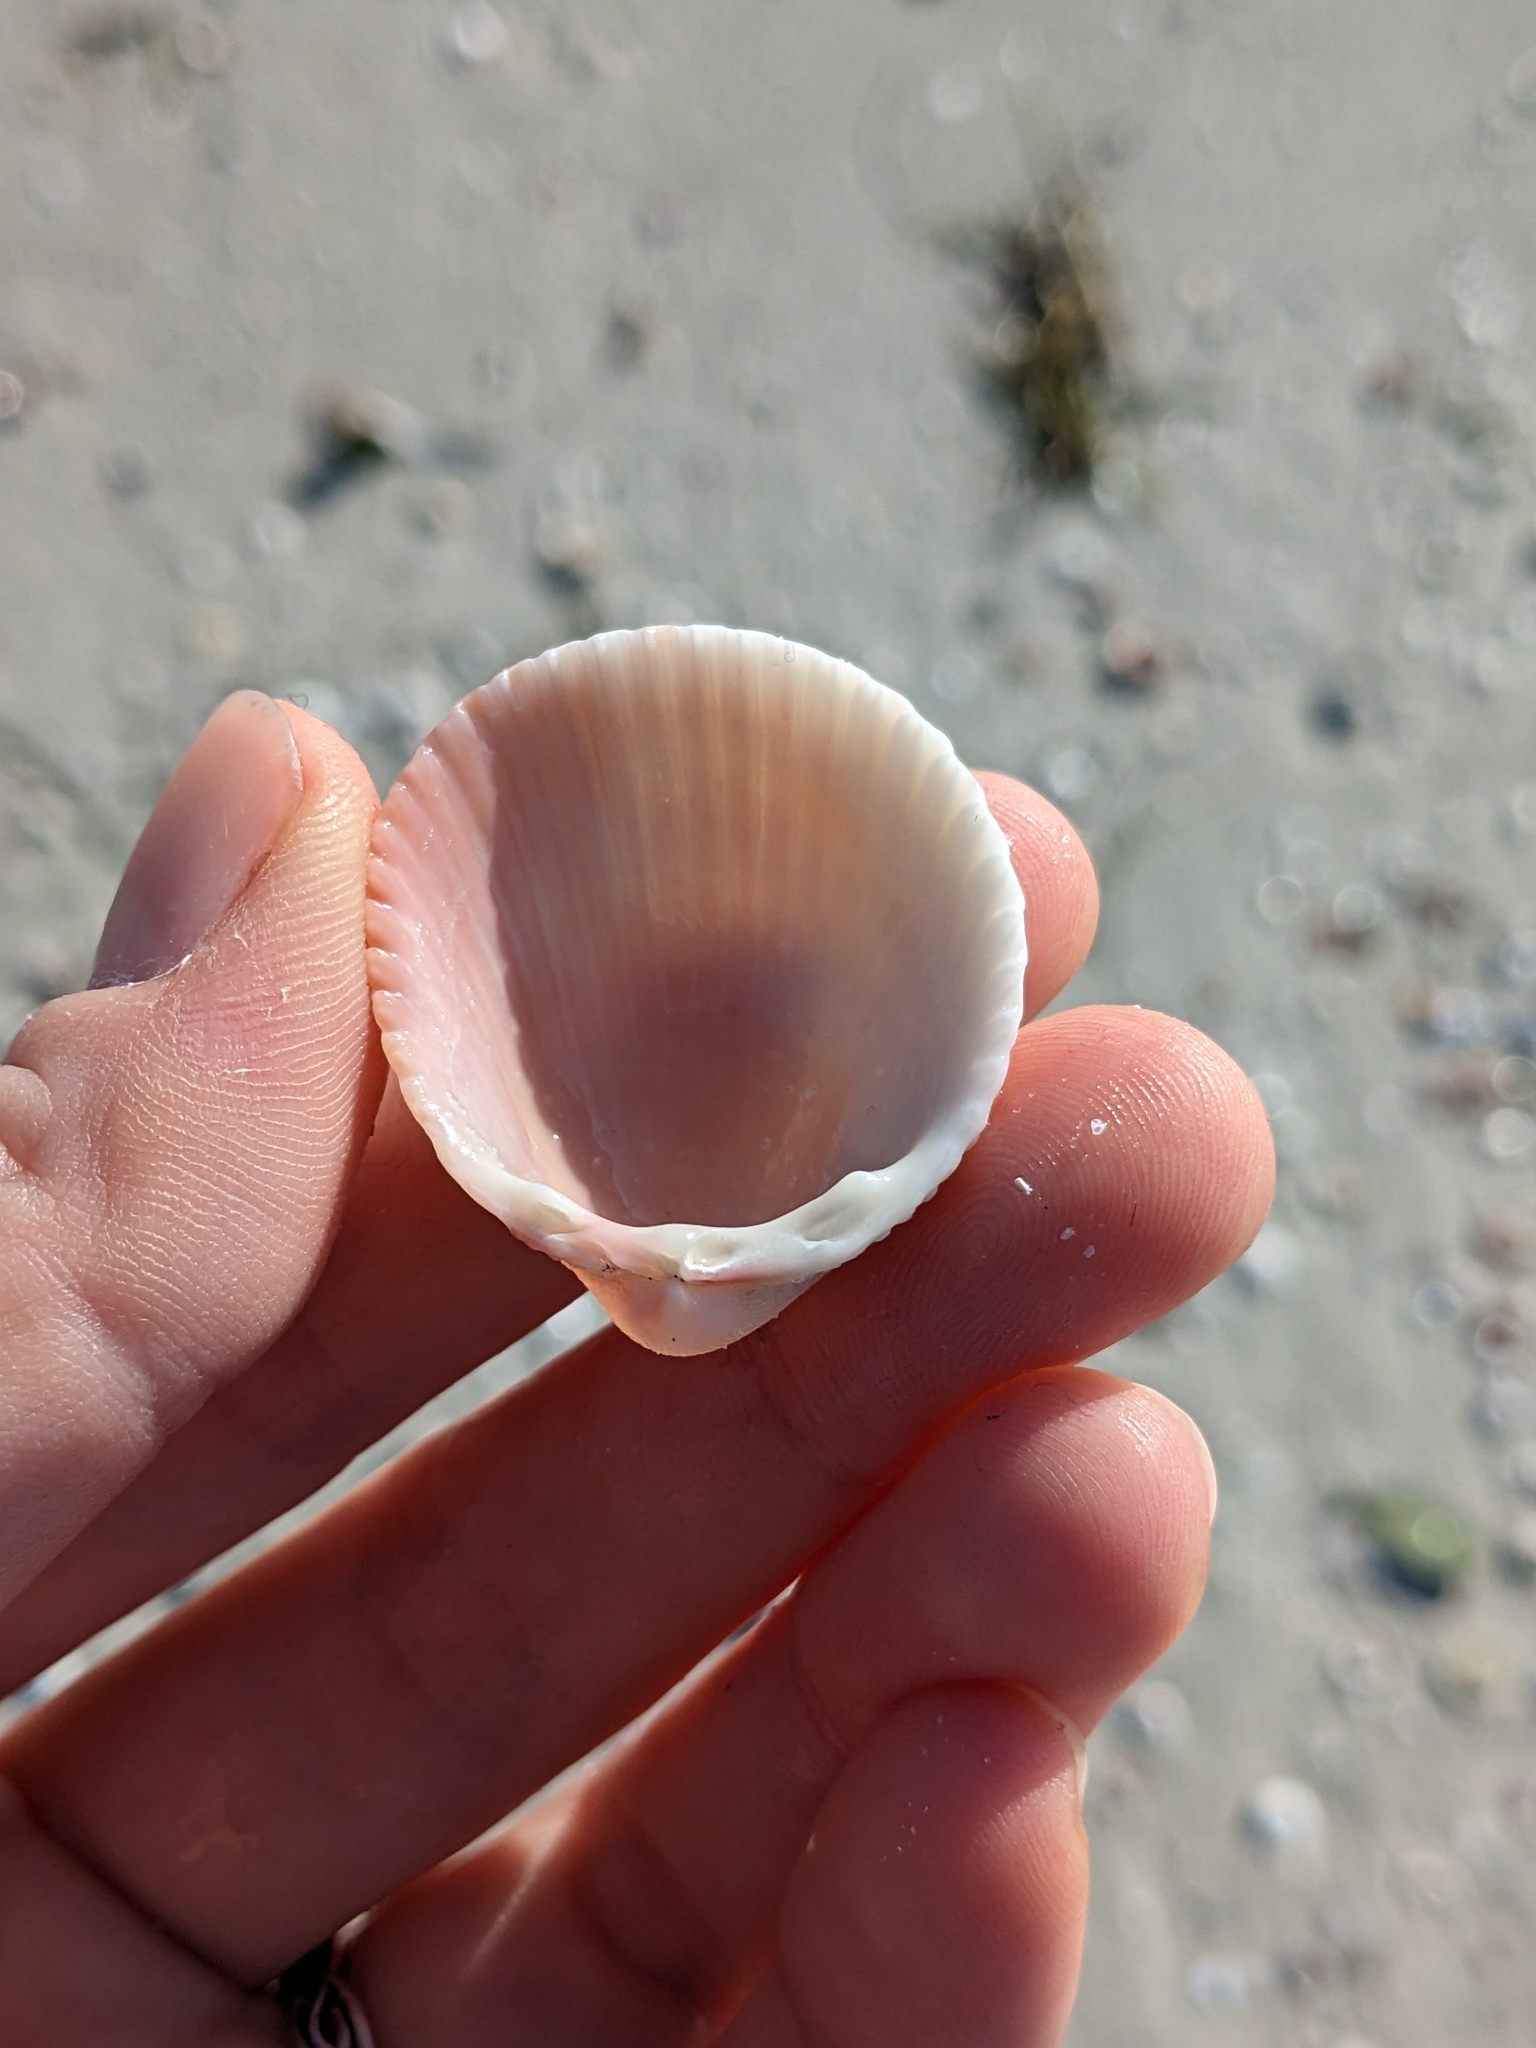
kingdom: Animalia
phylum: Mollusca
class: Bivalvia
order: Cardiida
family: Cardiidae
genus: Trachycardium
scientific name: Trachycardium egmontianum
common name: Florida pricklycockle
